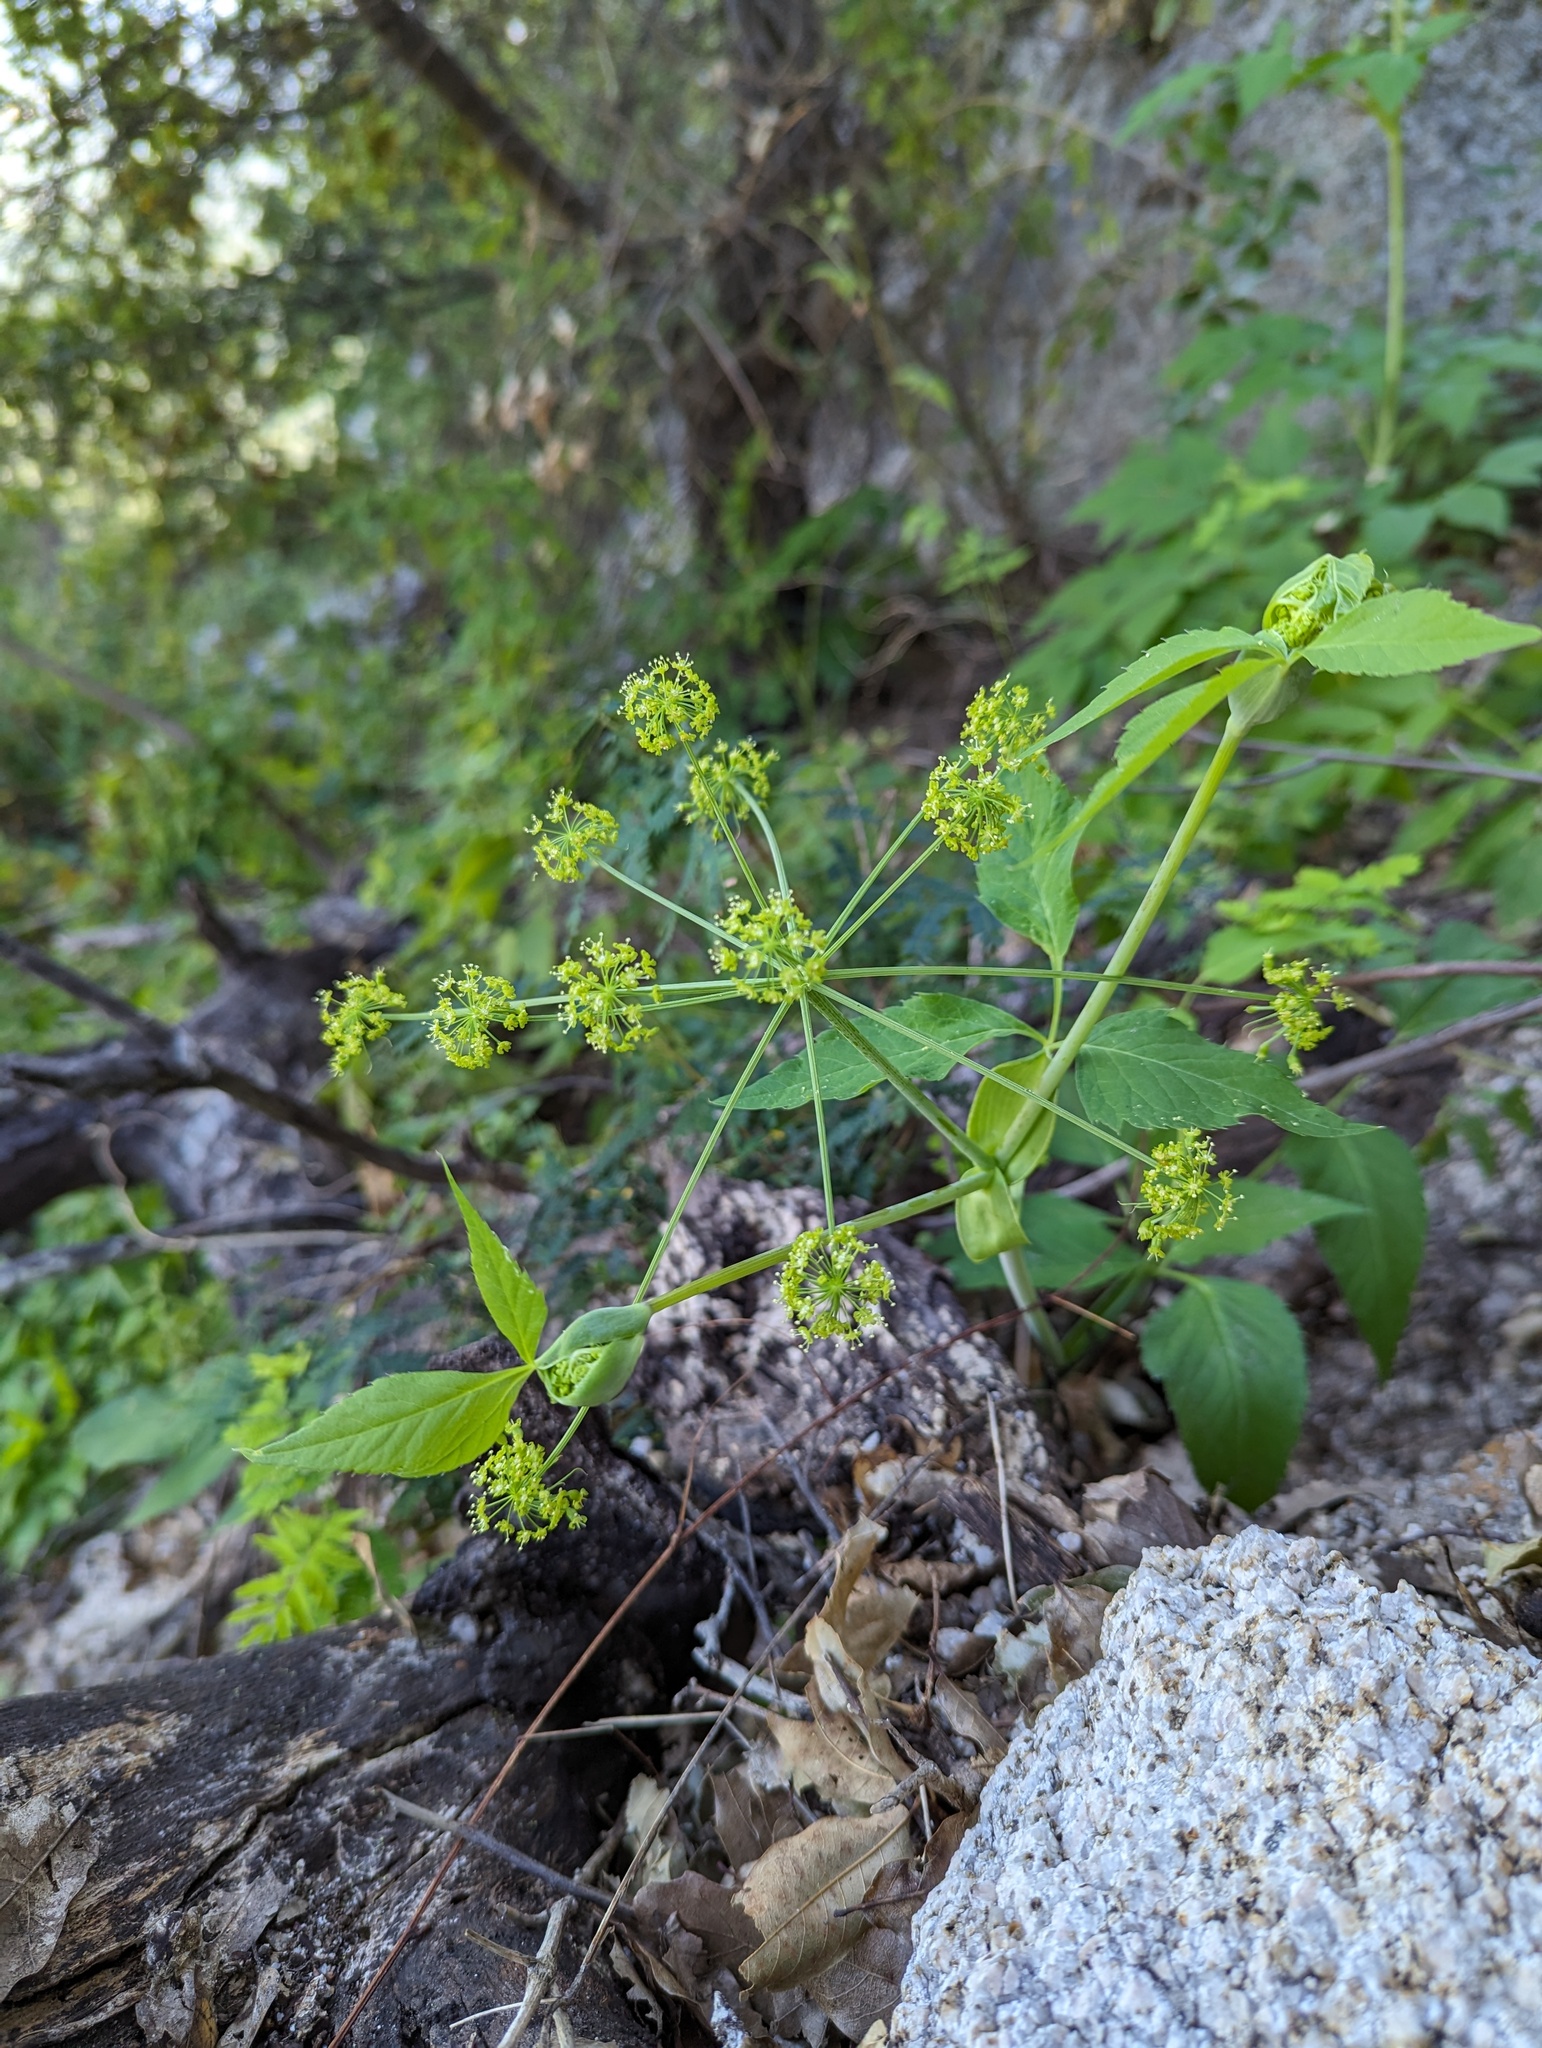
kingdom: Plantae
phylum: Tracheophyta
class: Magnoliopsida
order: Apiales
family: Apiaceae
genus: Arracacia
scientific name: Arracacia brandegeei
